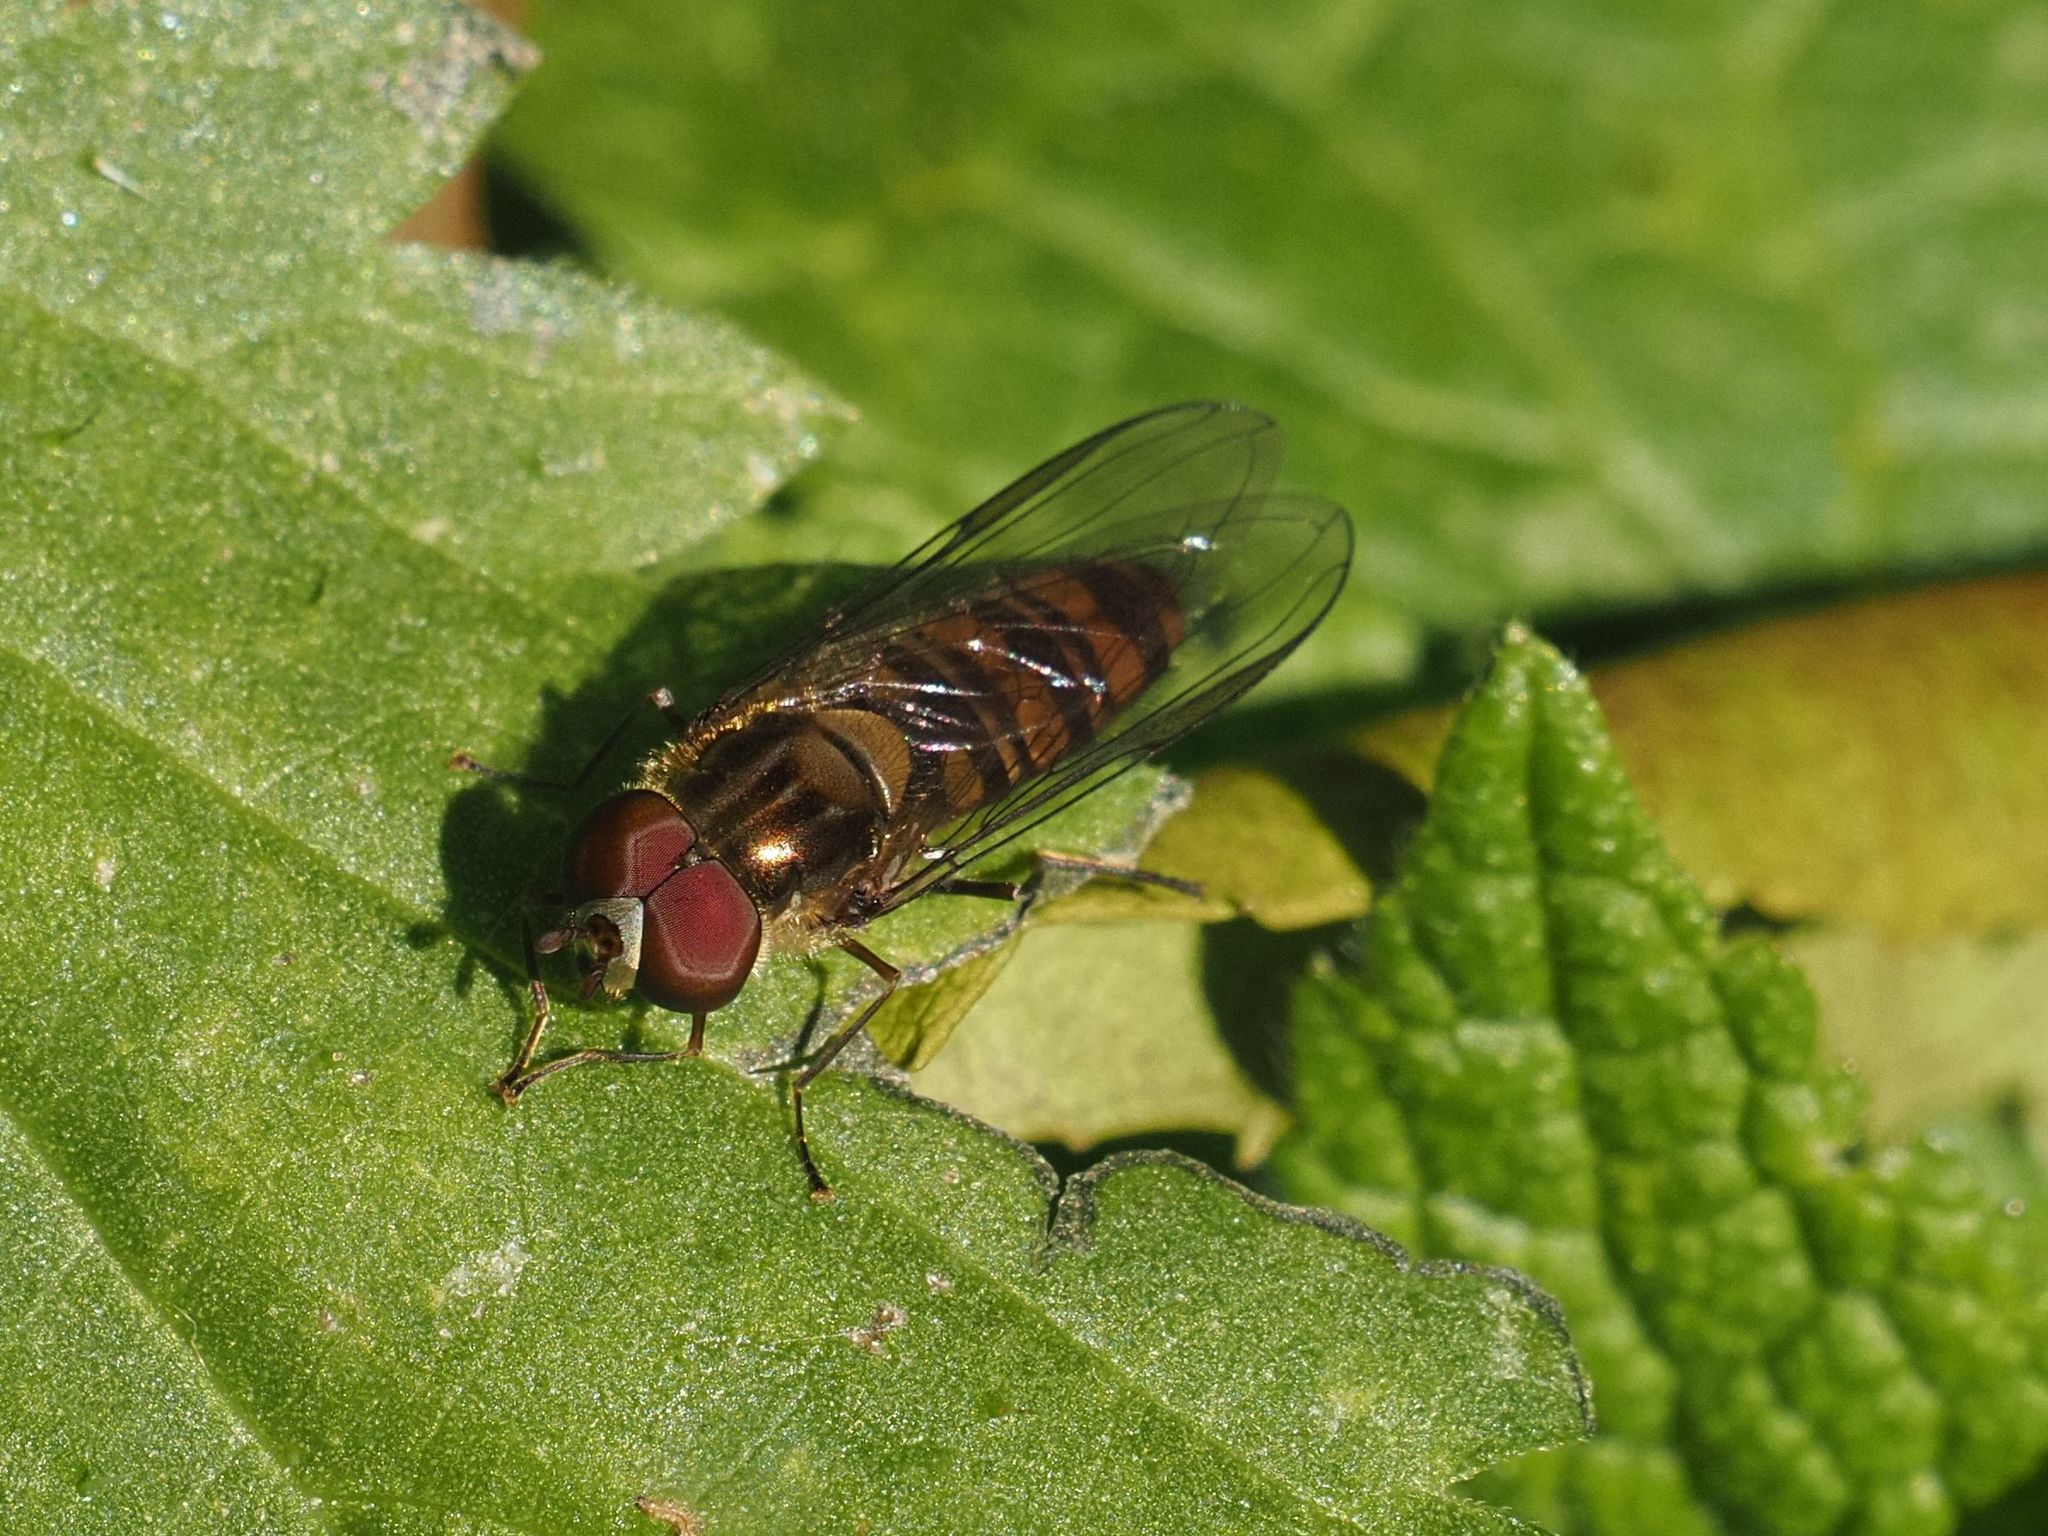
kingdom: Animalia
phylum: Arthropoda
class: Insecta
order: Diptera
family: Syrphidae
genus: Episyrphus
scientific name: Episyrphus balteatus
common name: Marmalade hoverfly
